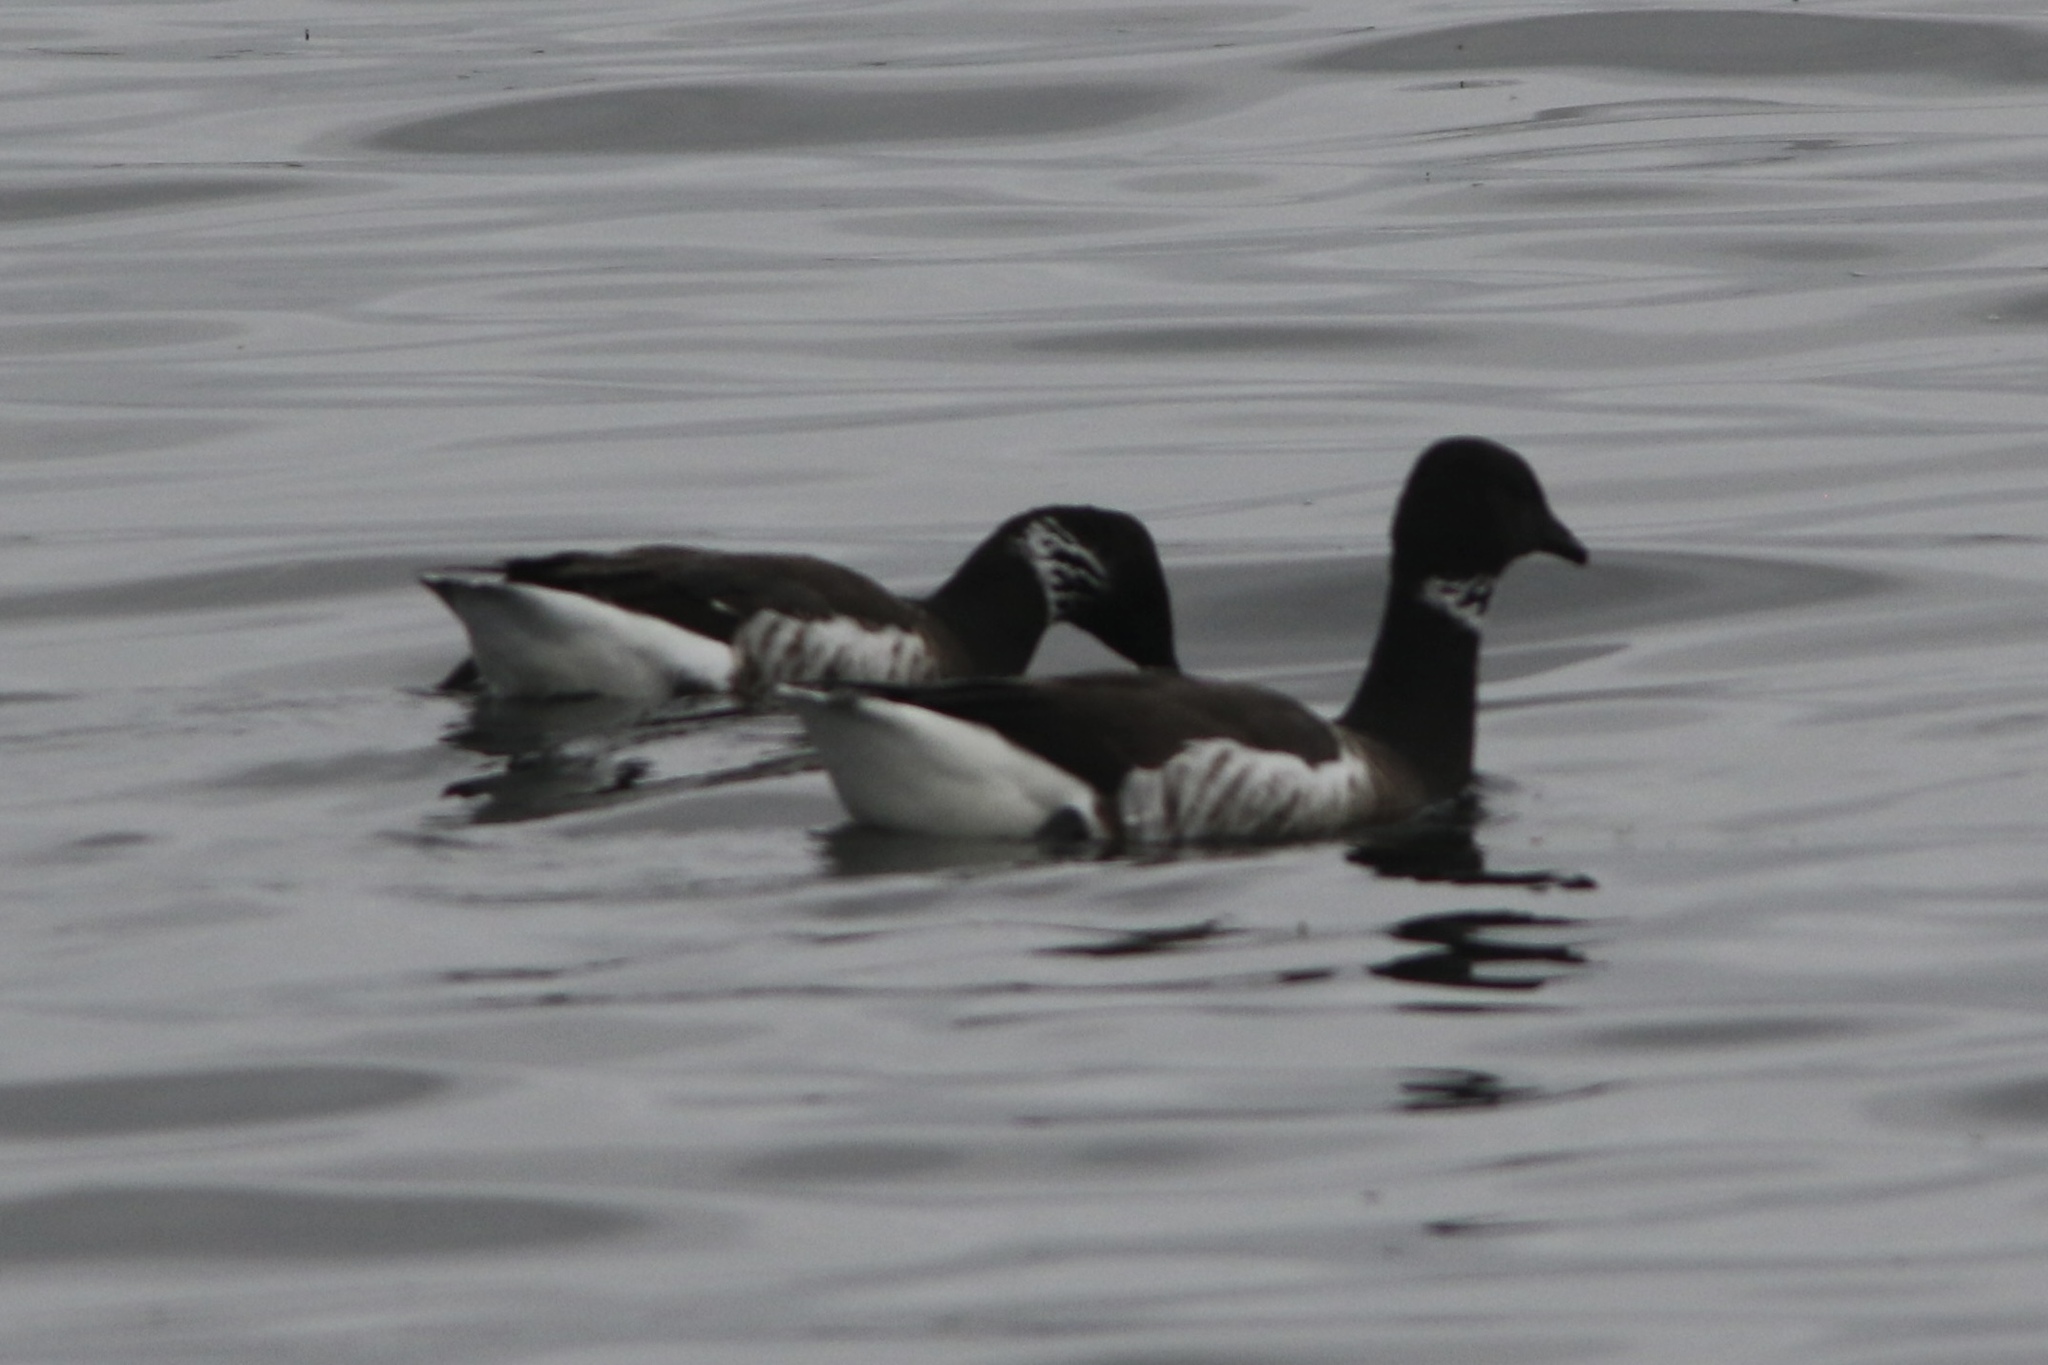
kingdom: Animalia
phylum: Chordata
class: Aves
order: Anseriformes
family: Anatidae
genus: Branta
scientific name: Branta bernicla
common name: Brant goose
